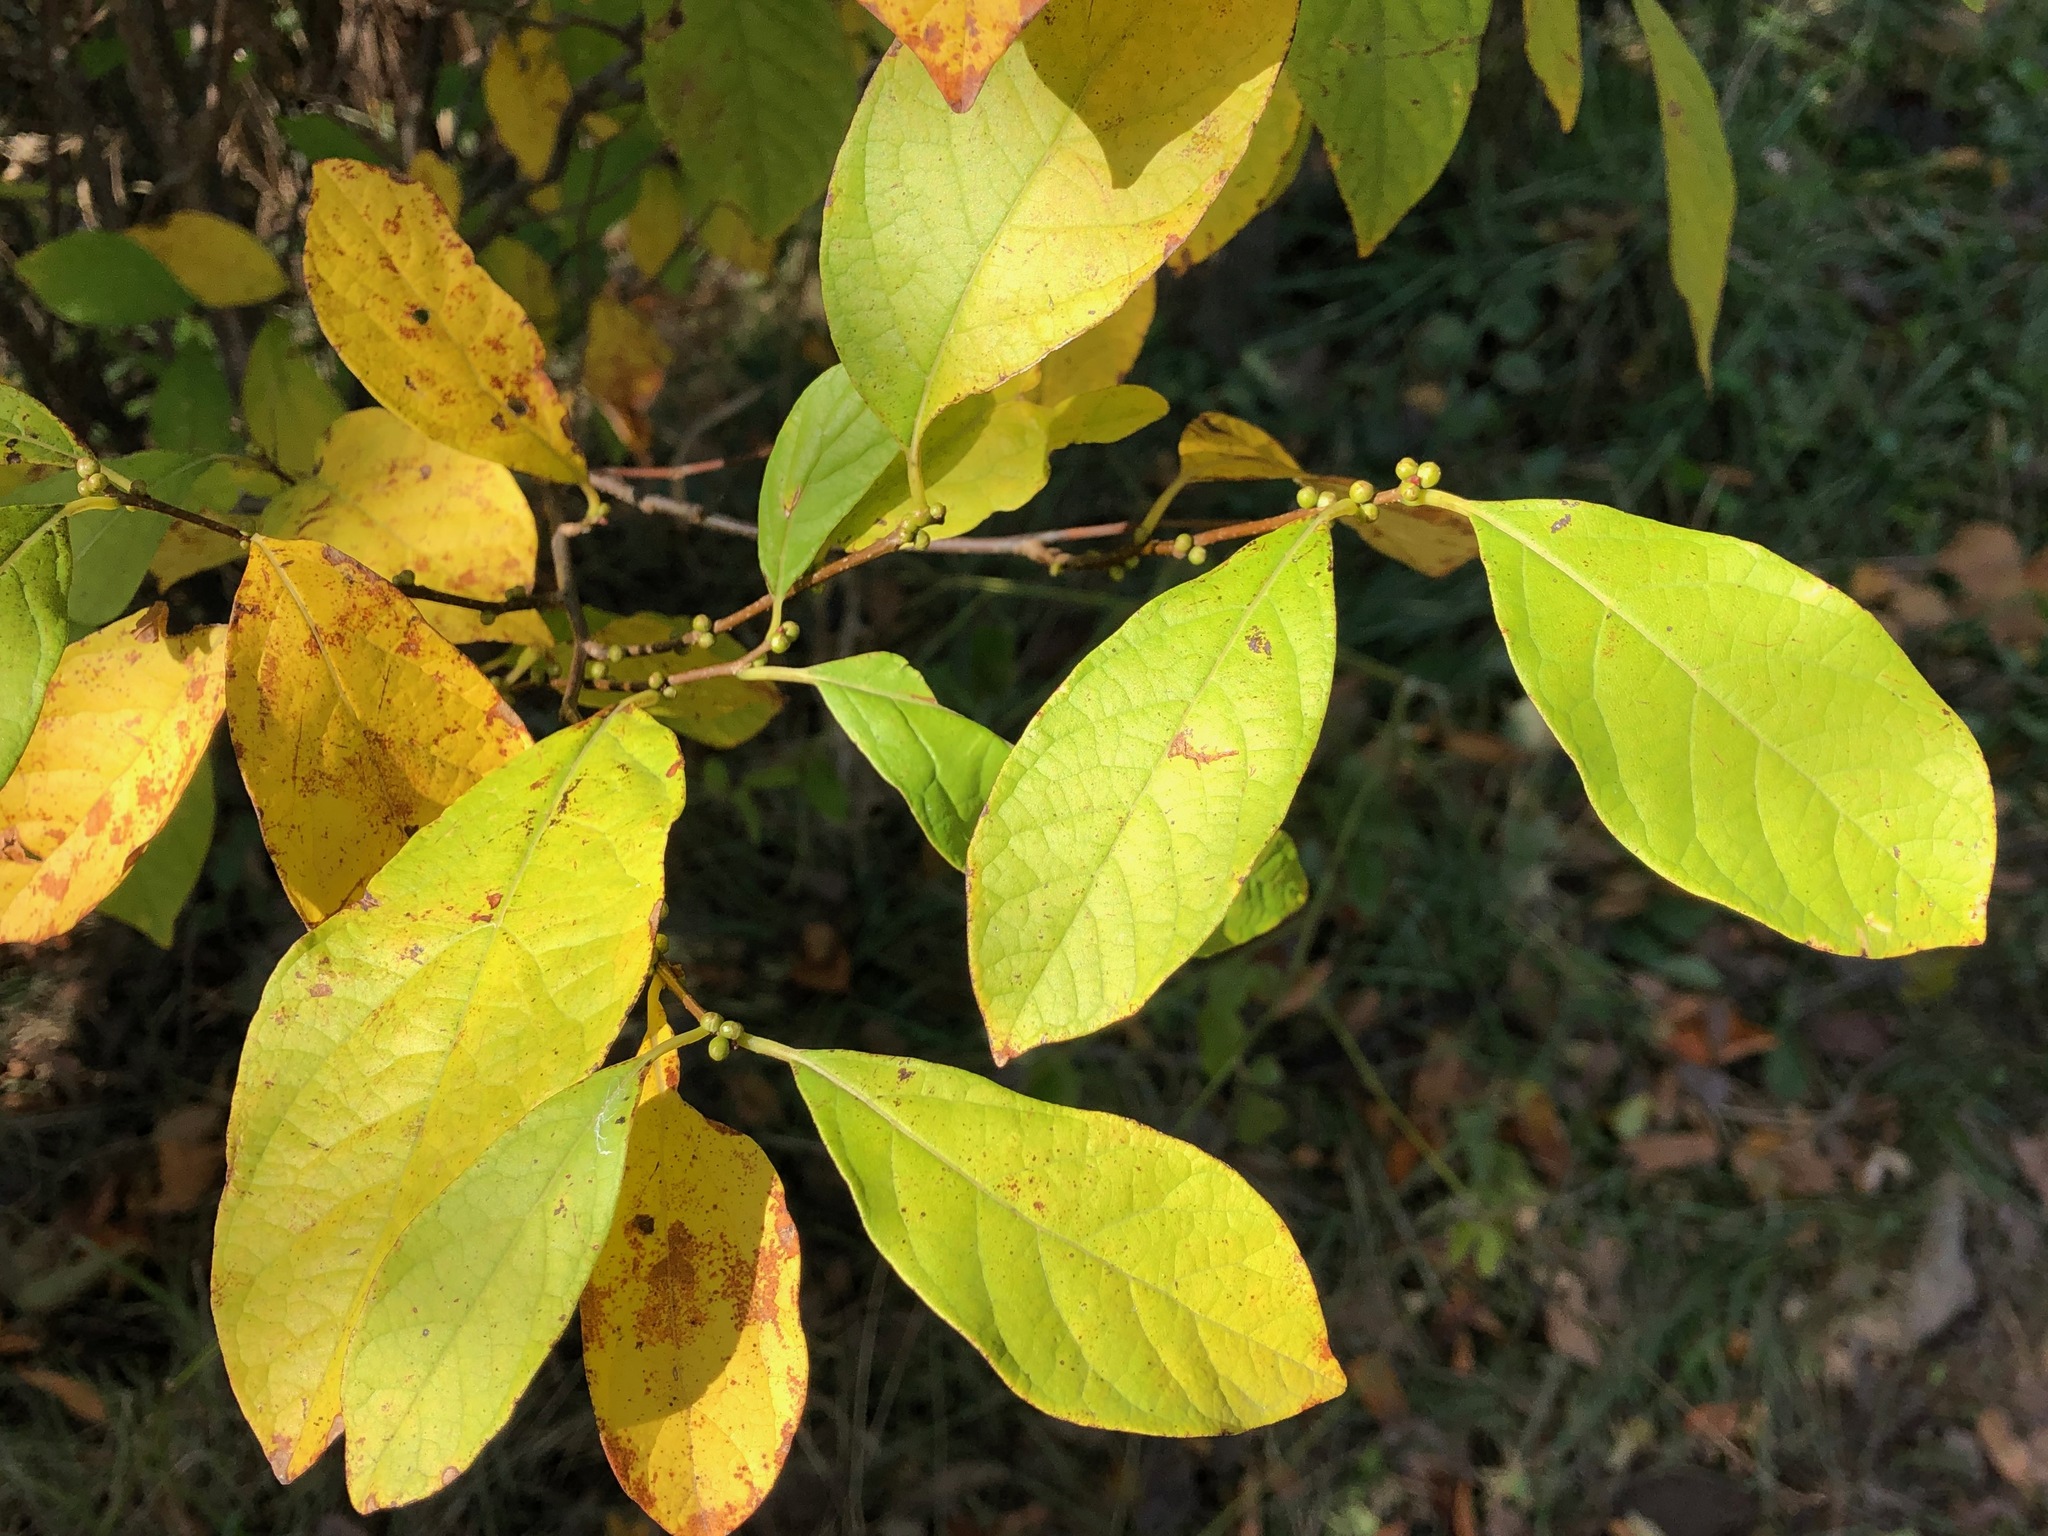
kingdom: Plantae
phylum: Tracheophyta
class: Magnoliopsida
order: Laurales
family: Lauraceae
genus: Lindera
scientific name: Lindera benzoin
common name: Spicebush
